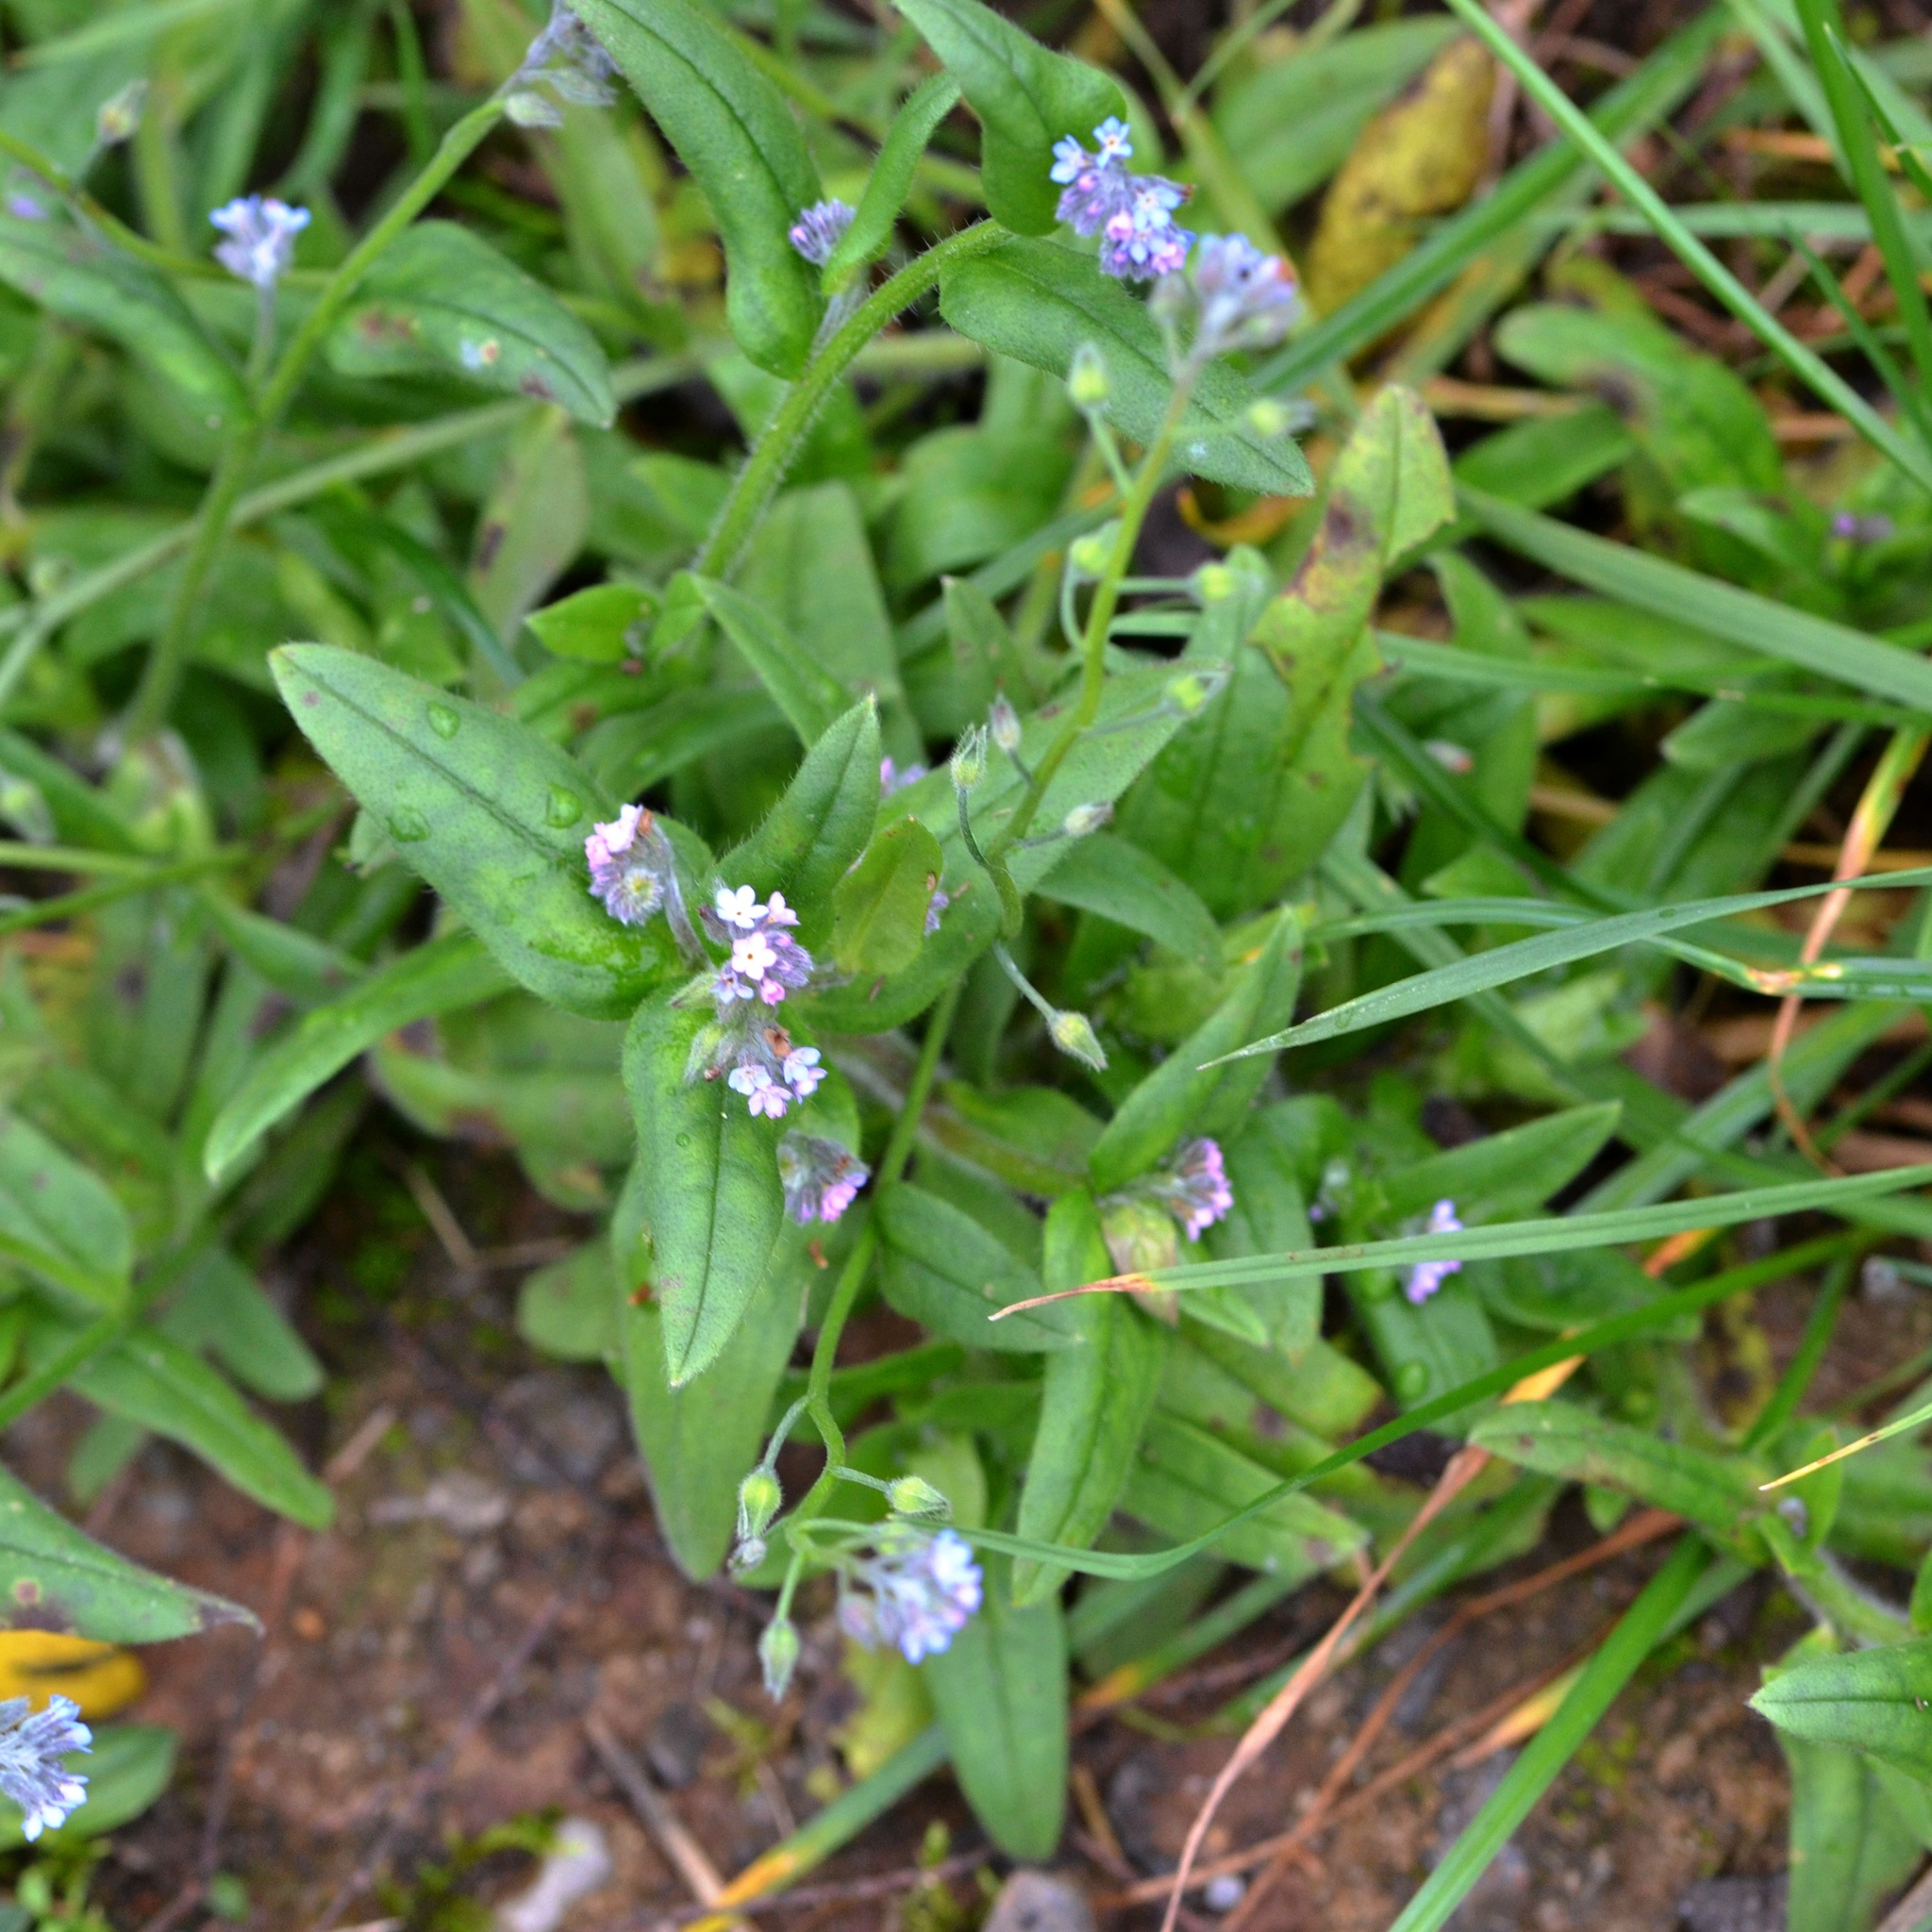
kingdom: Plantae
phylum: Tracheophyta
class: Magnoliopsida
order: Boraginales
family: Boraginaceae
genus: Myosotis
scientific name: Myosotis arvensis
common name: Field forget-me-not
